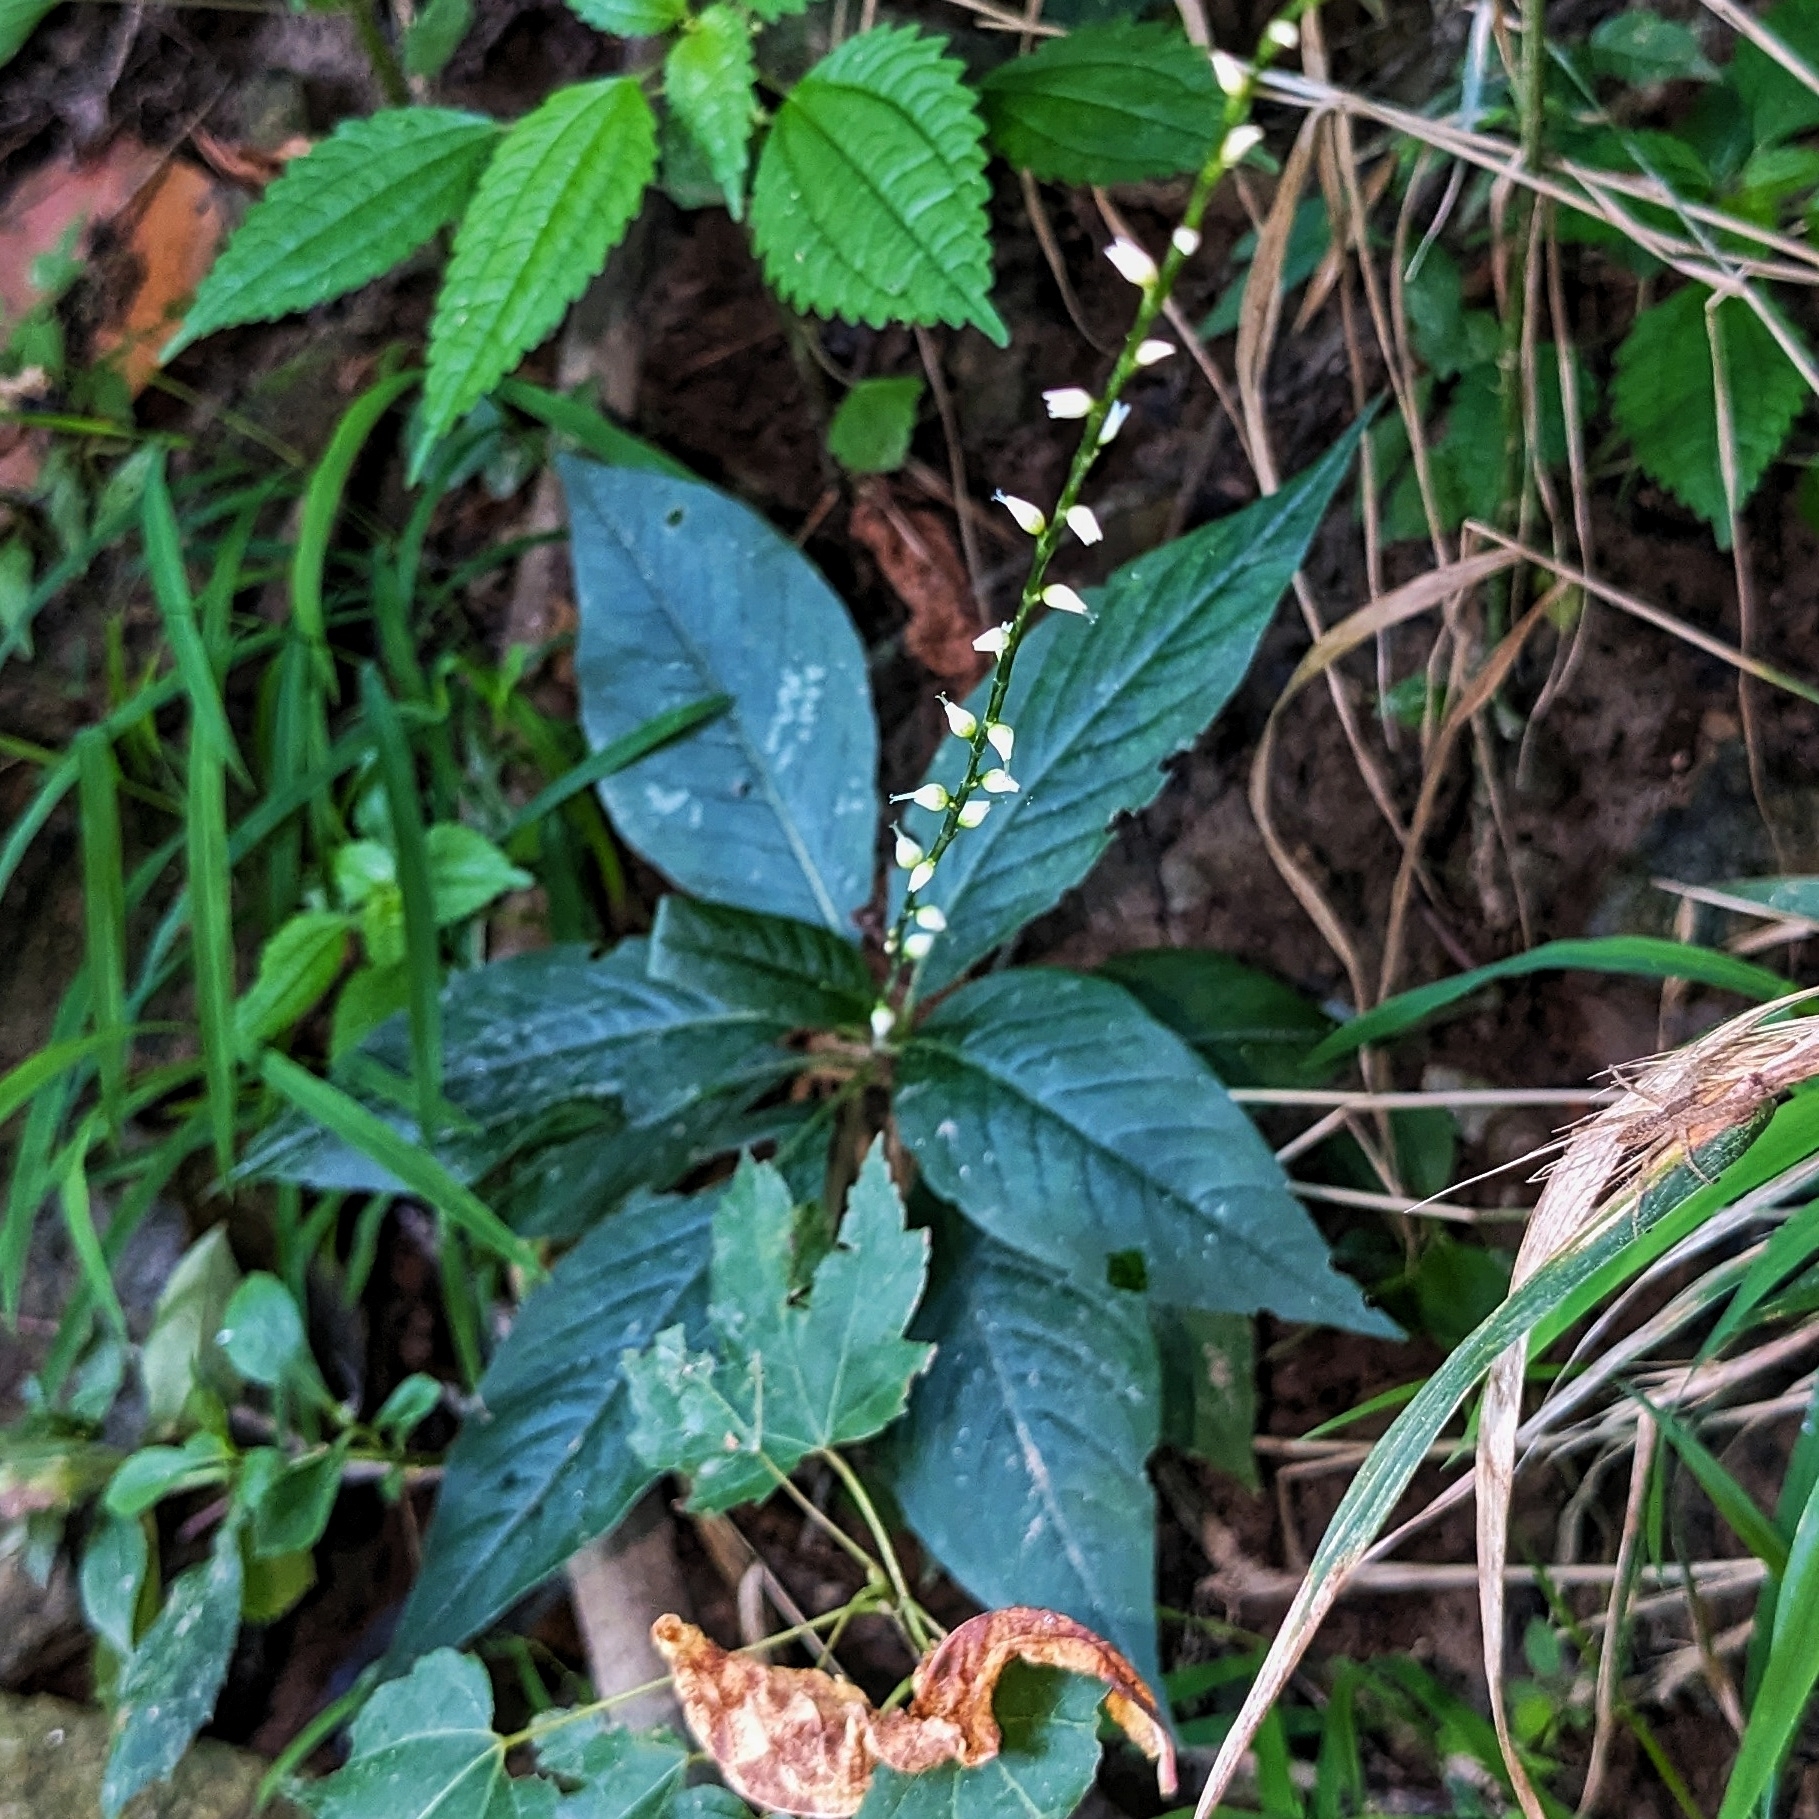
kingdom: Plantae
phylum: Tracheophyta
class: Magnoliopsida
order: Caryophyllales
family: Polygonaceae
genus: Persicaria
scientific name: Persicaria virginiana
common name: Jumpseed
